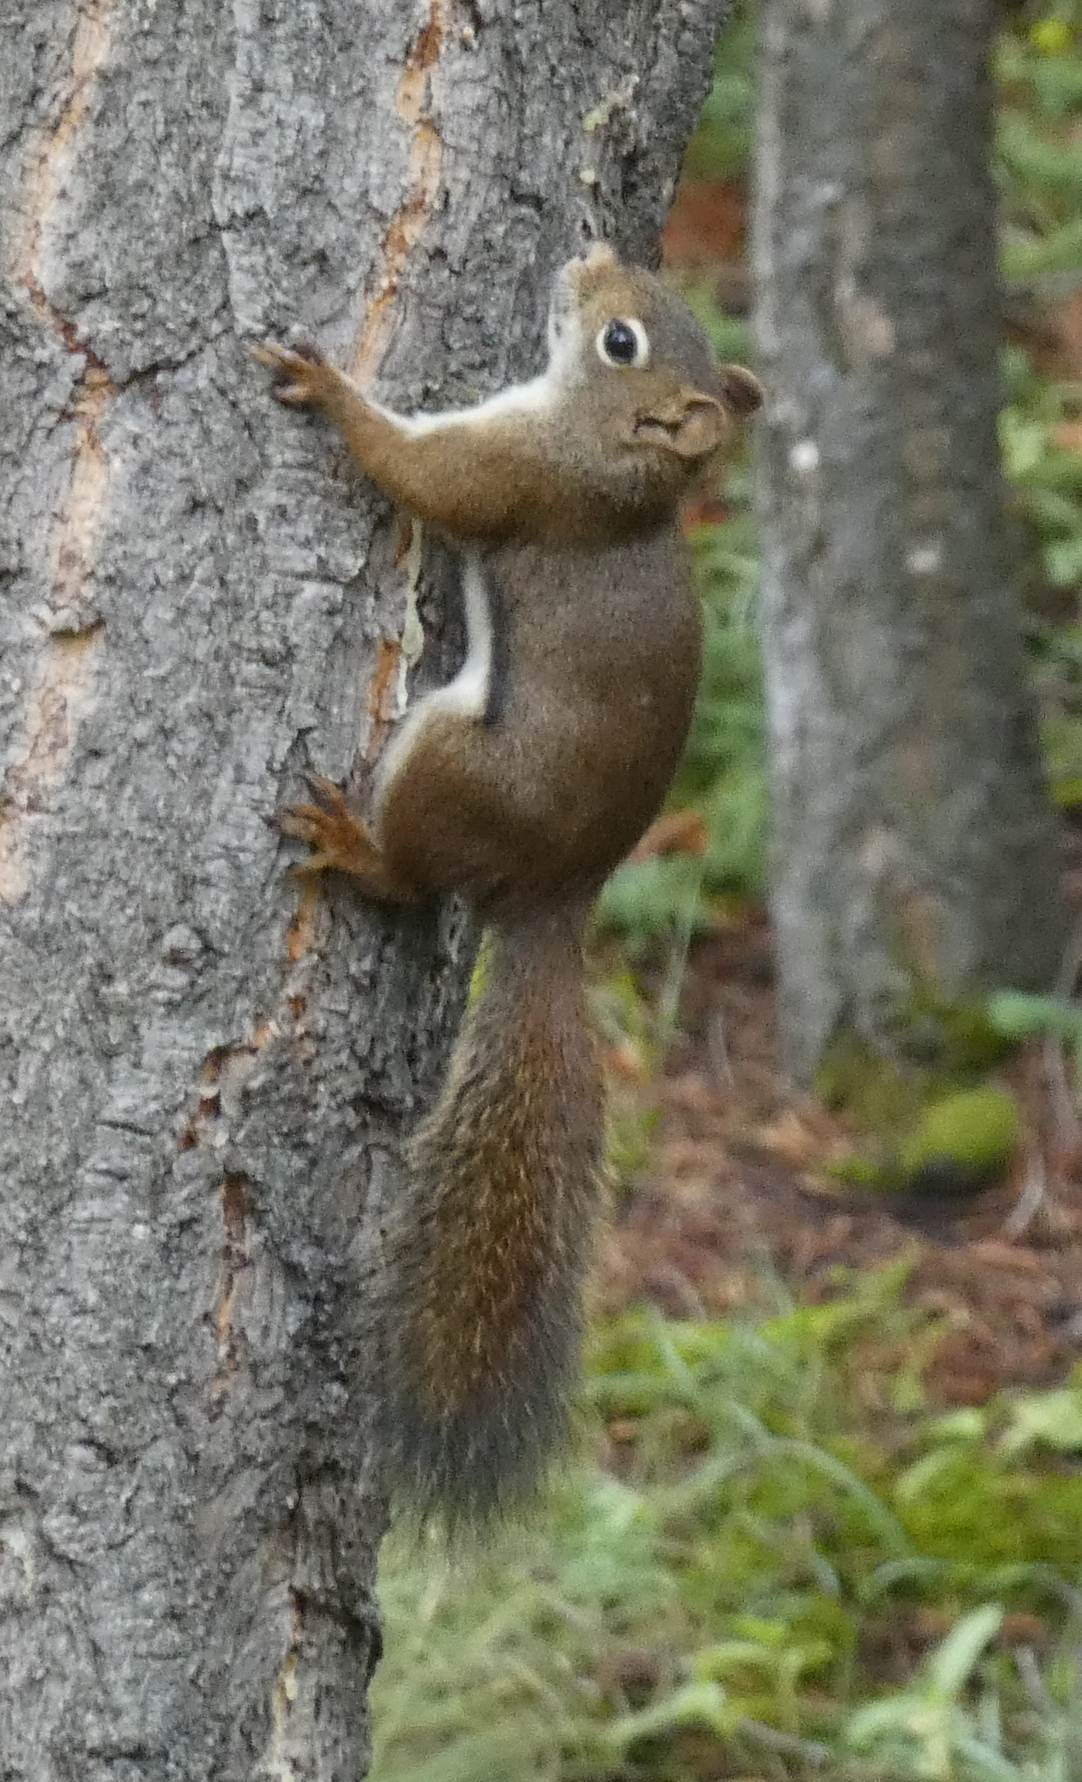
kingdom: Animalia
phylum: Chordata
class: Mammalia
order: Rodentia
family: Sciuridae
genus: Tamiasciurus
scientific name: Tamiasciurus hudsonicus
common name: Red squirrel
